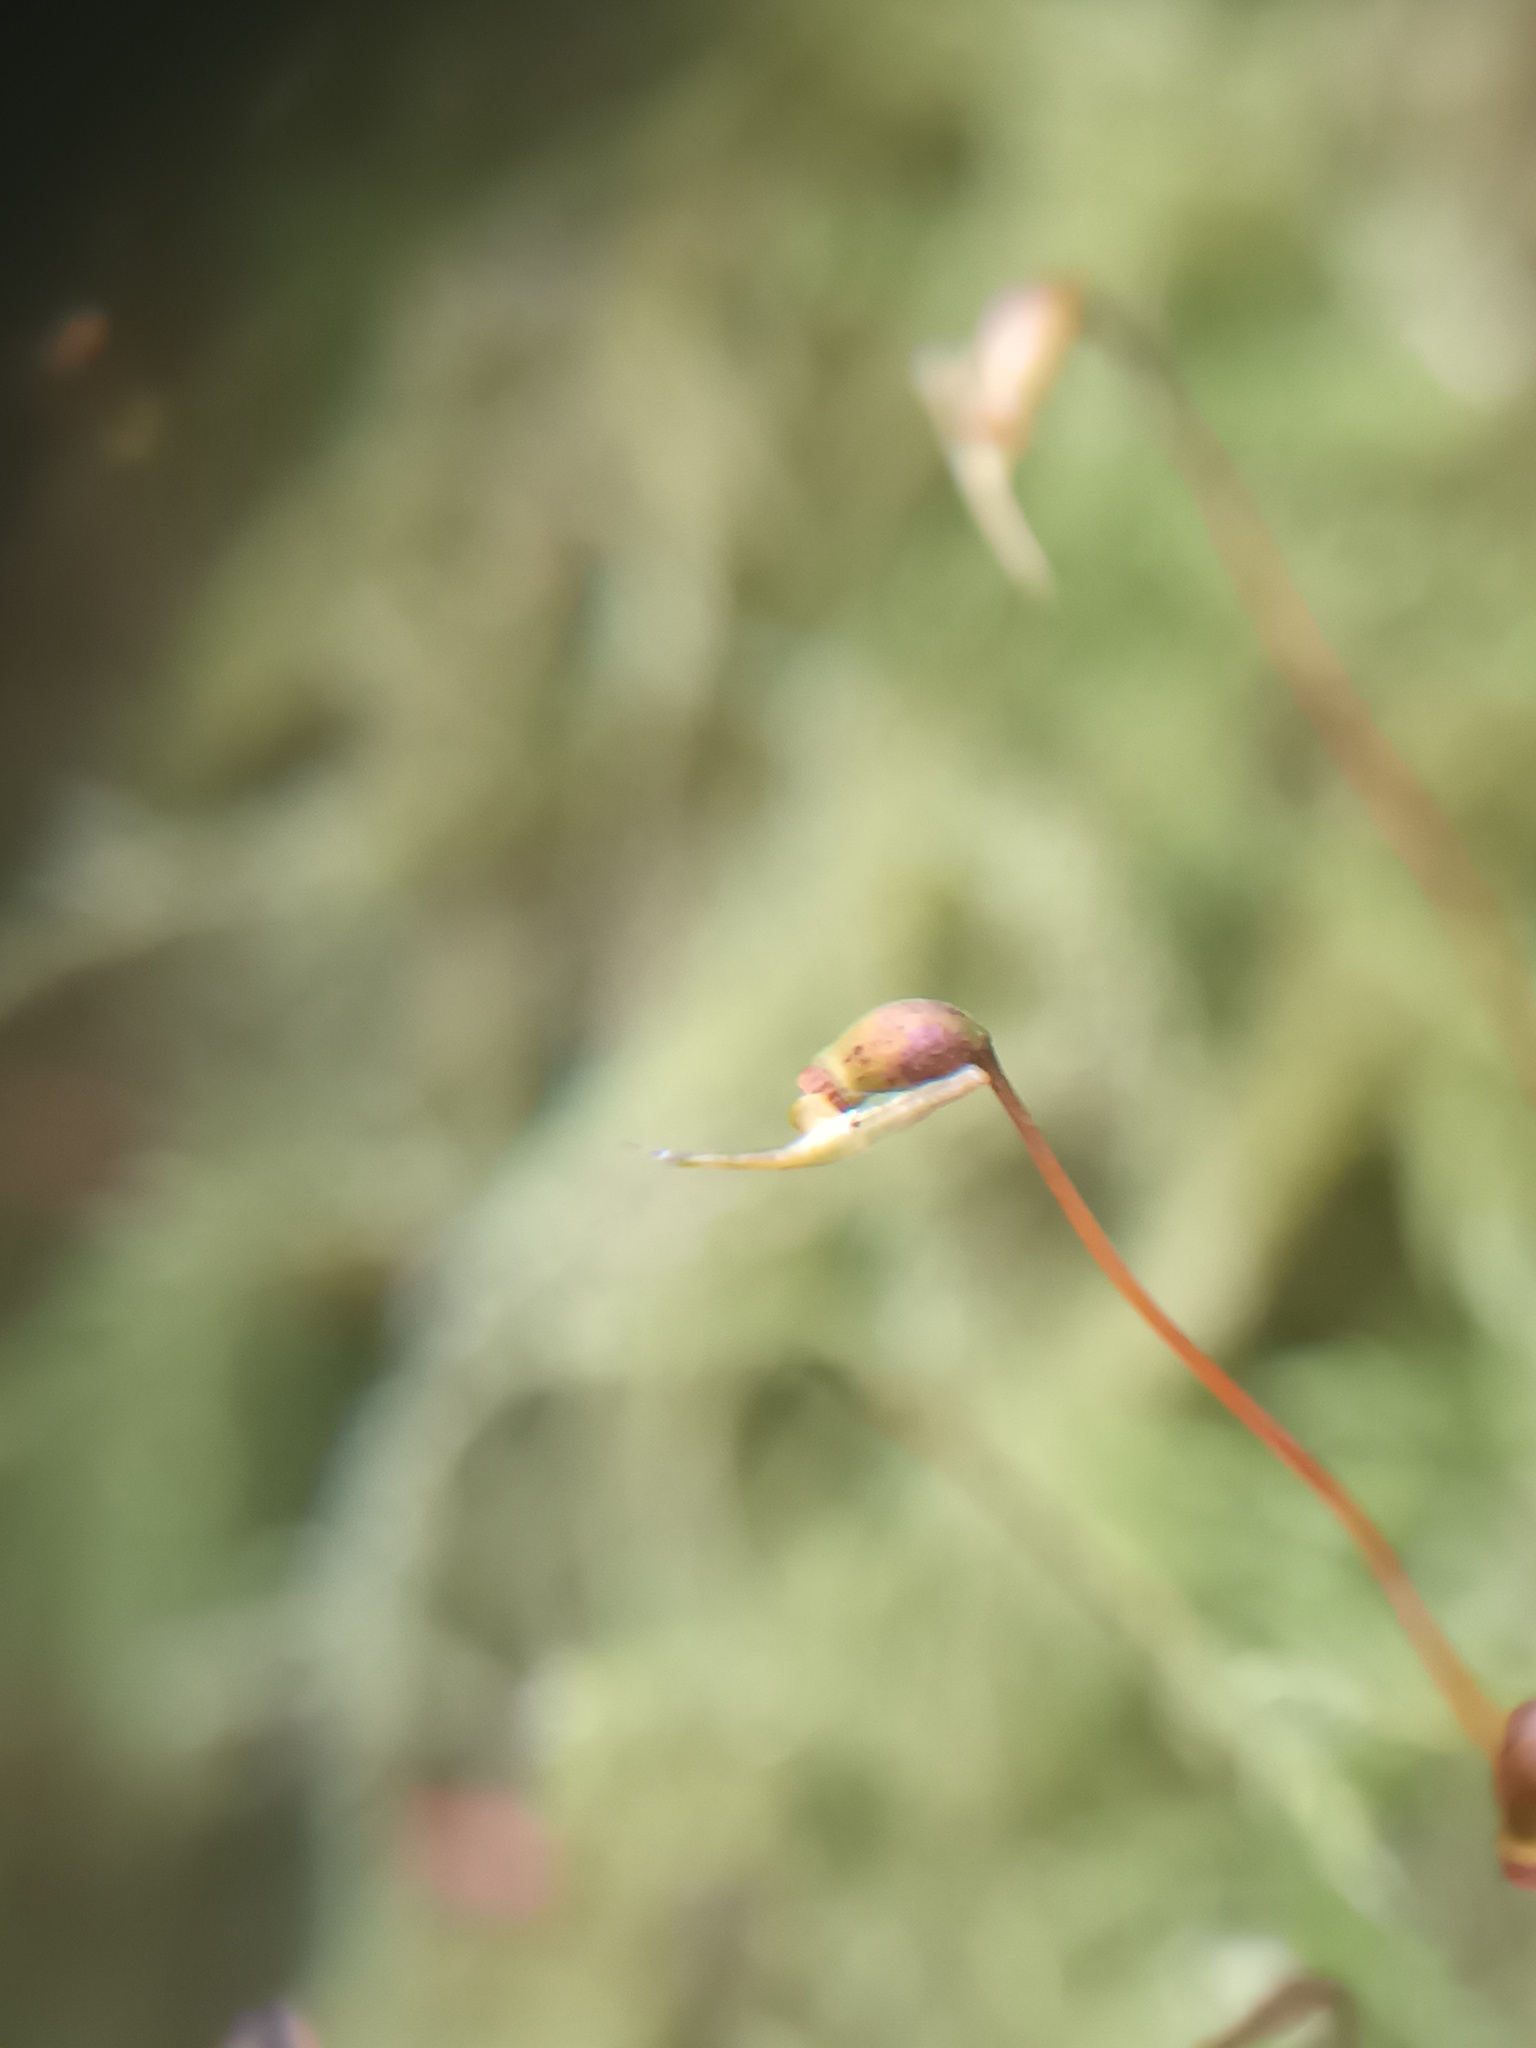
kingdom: Plantae
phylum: Bryophyta
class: Bryopsida
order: Hypnales
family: Brachytheciaceae
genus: Kindbergia
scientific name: Kindbergia praelonga
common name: Slender beaked moss
